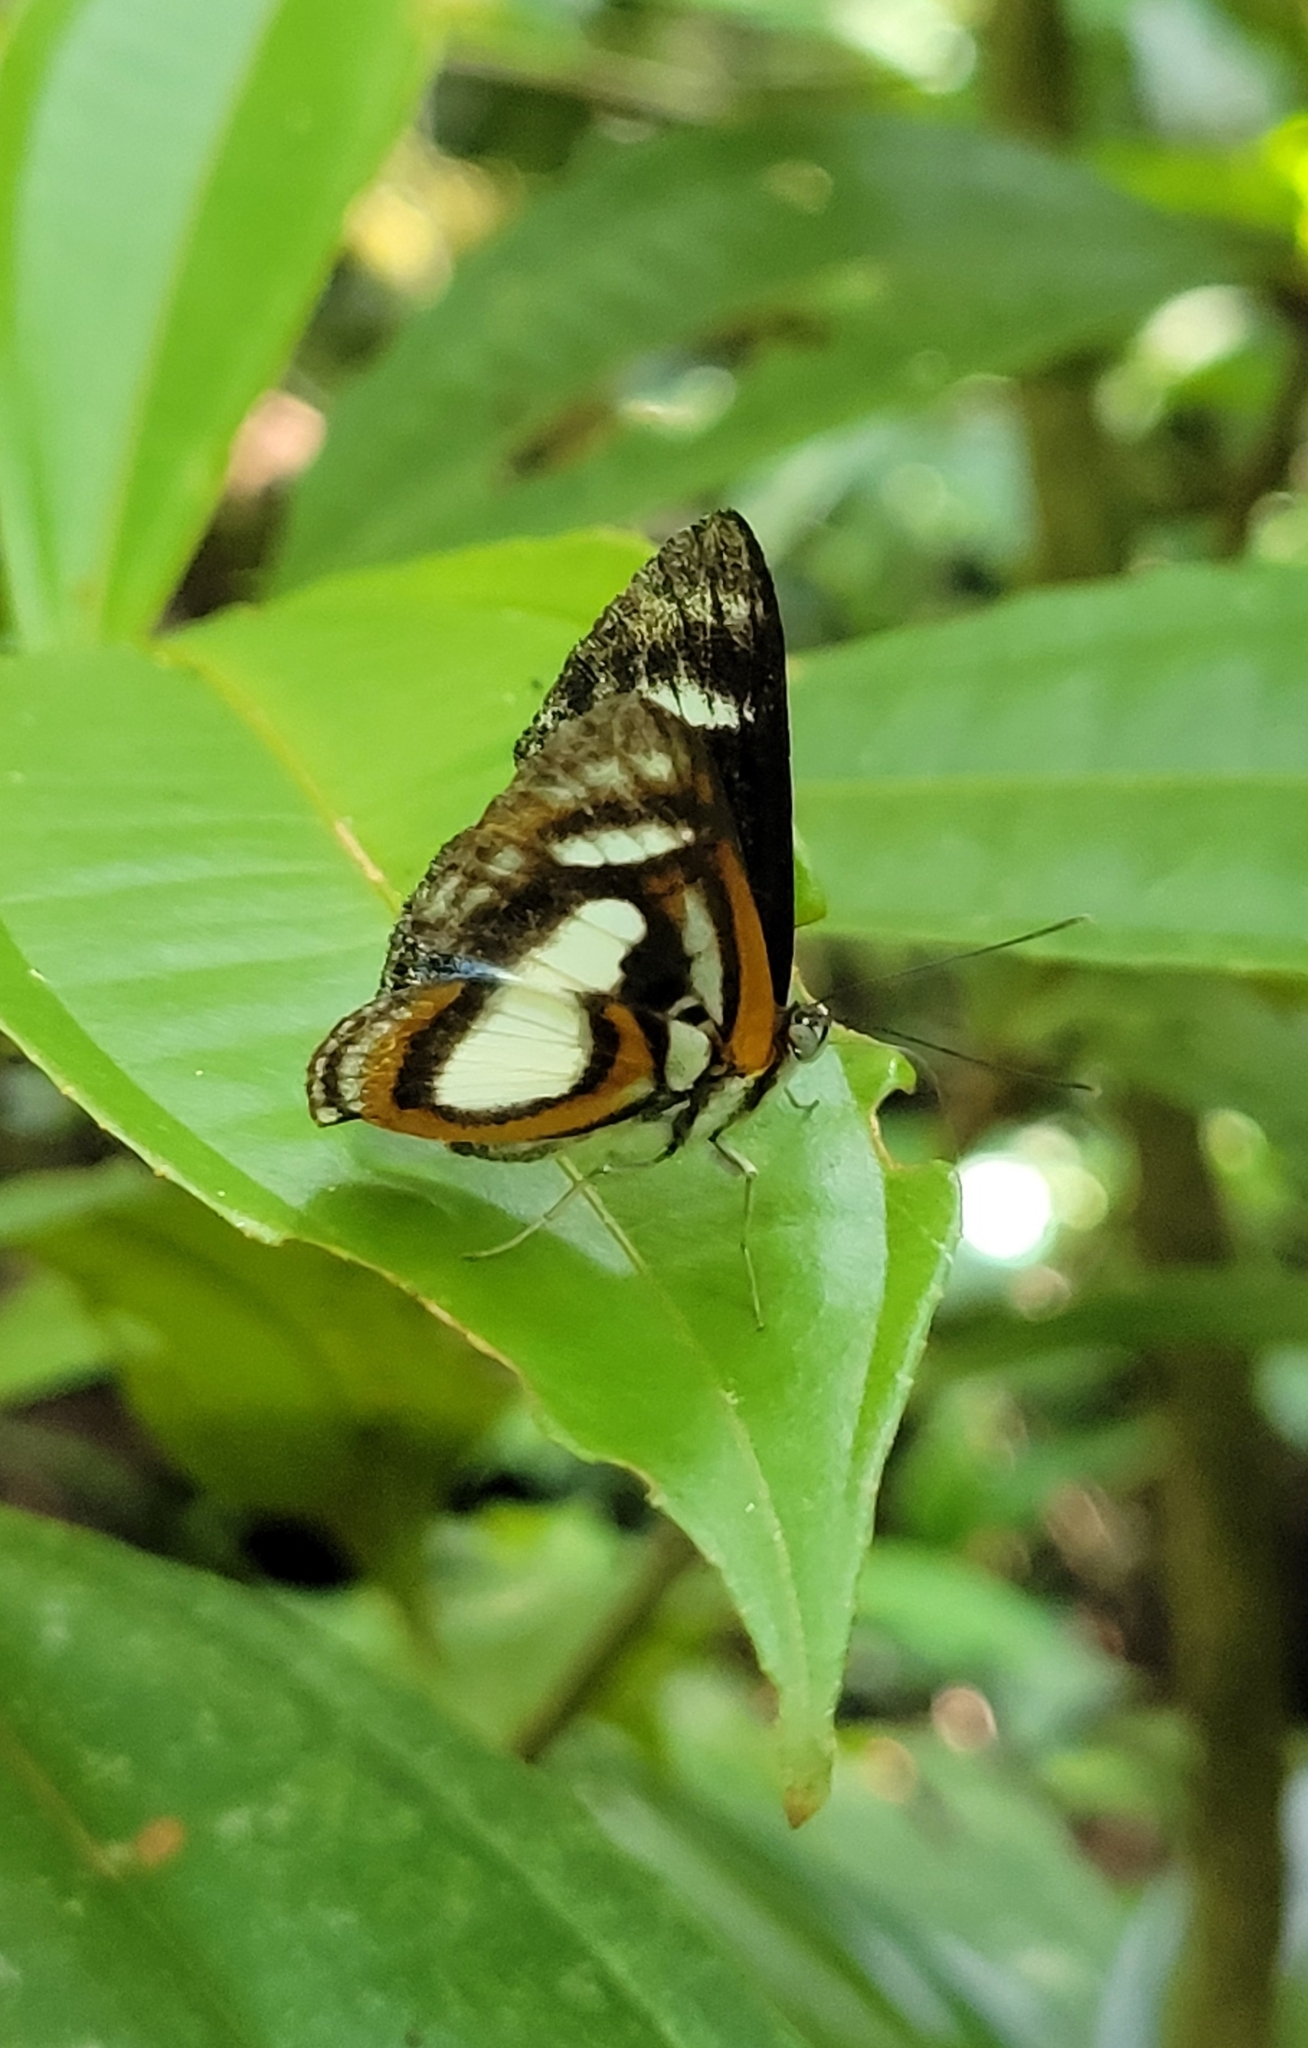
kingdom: Animalia
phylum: Arthropoda
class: Insecta
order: Lepidoptera
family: Riodinidae
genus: Thisbe
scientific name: Thisbe irenea
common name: Irenia metalmark
